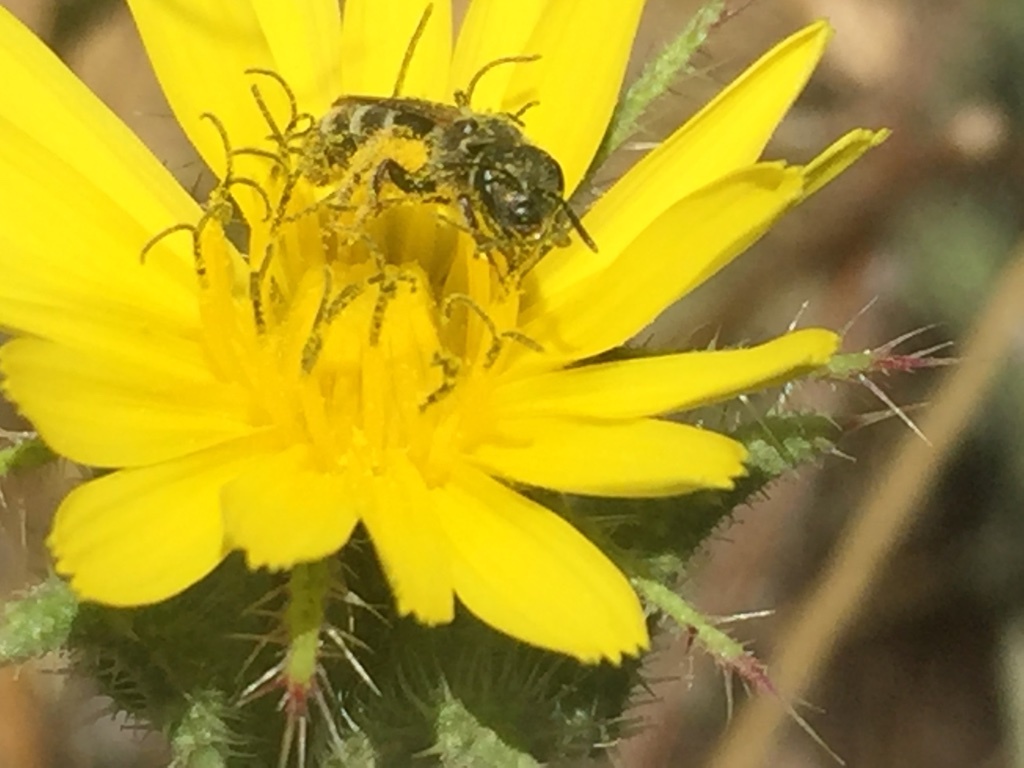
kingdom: Animalia
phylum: Arthropoda
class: Insecta
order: Hymenoptera
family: Halictidae
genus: Halictus
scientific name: Halictus tripartitus
